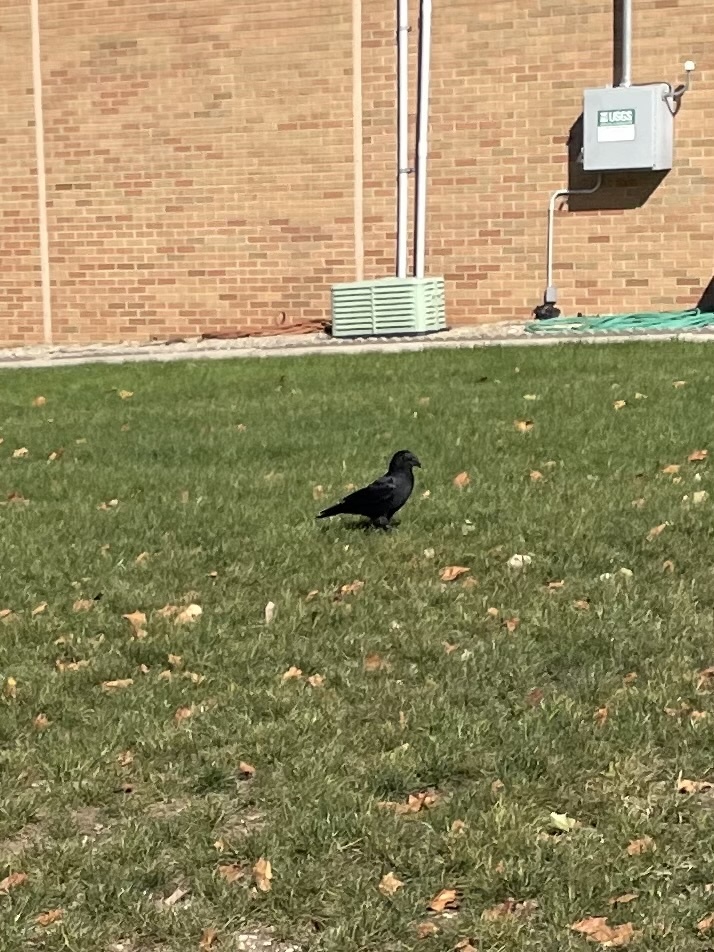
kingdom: Animalia
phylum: Chordata
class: Aves
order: Passeriformes
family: Corvidae
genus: Corvus
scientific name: Corvus brachyrhynchos
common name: American crow
